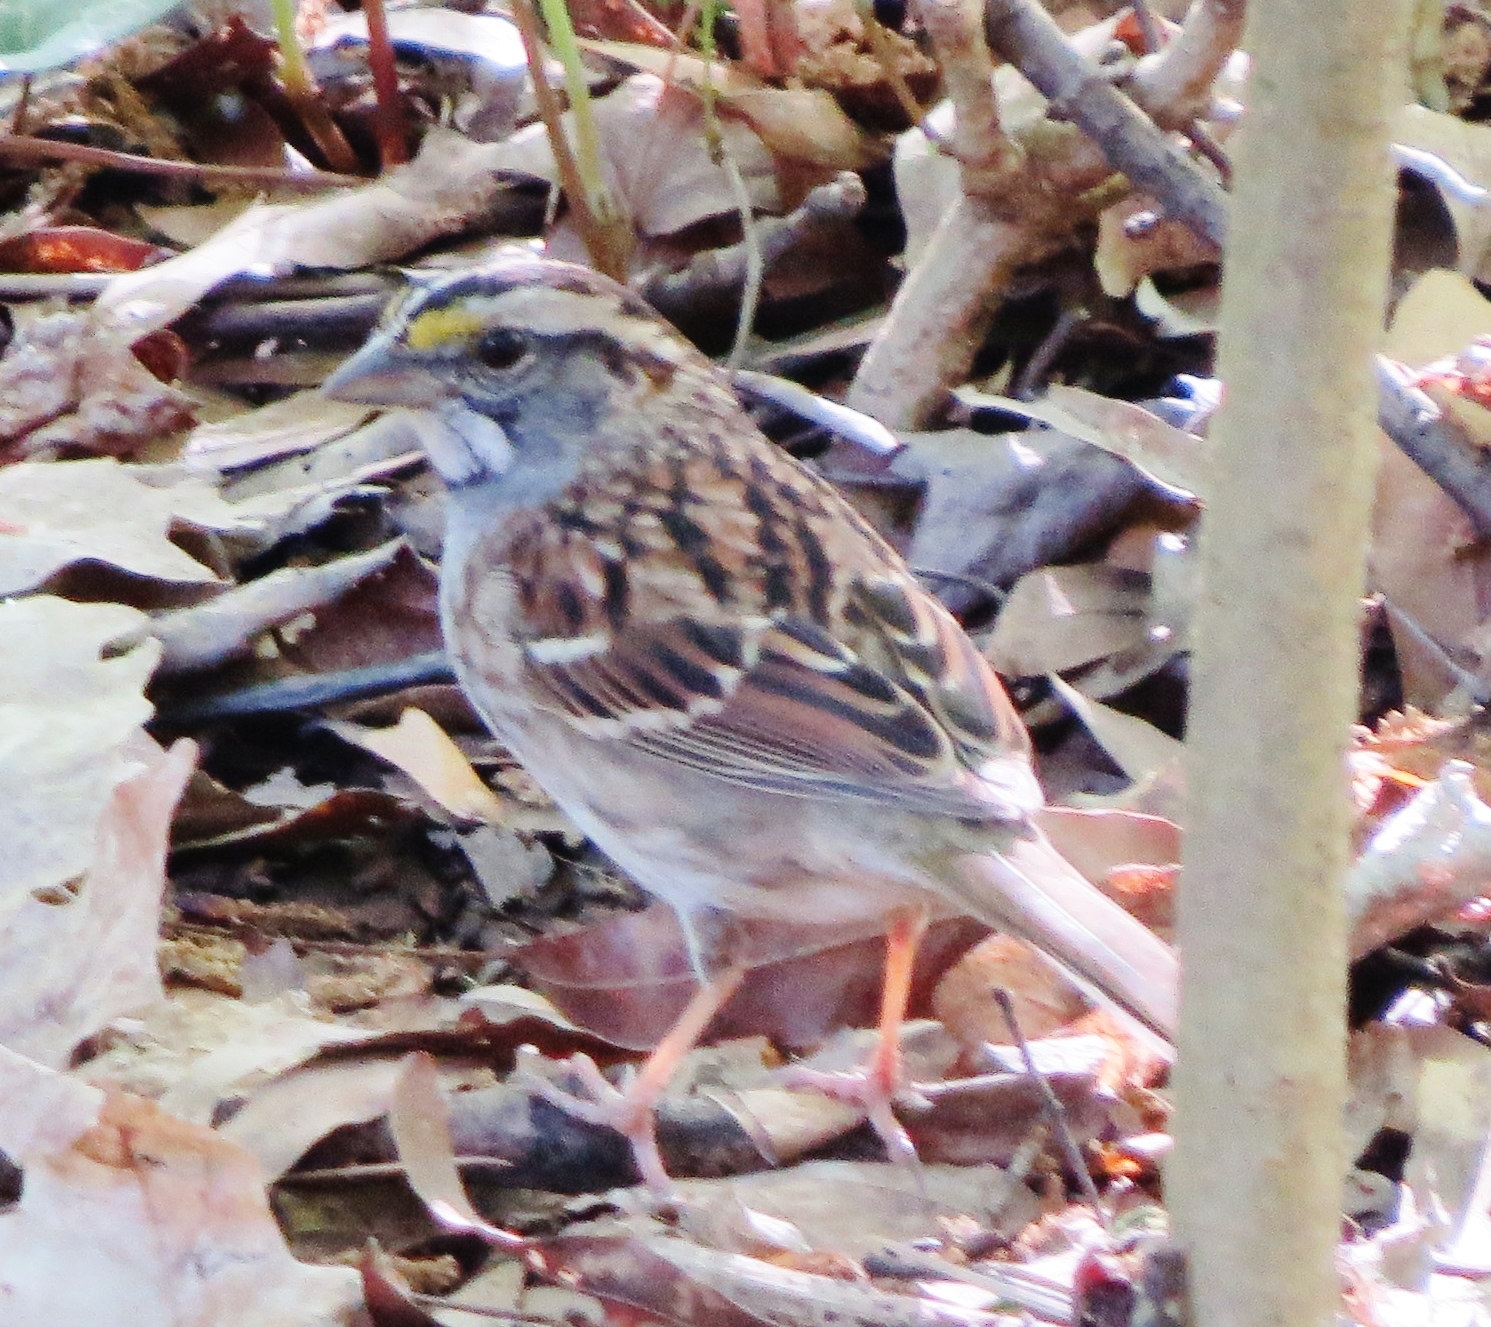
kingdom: Animalia
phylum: Chordata
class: Aves
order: Passeriformes
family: Passerellidae
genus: Zonotrichia
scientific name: Zonotrichia albicollis
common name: White-throated sparrow
